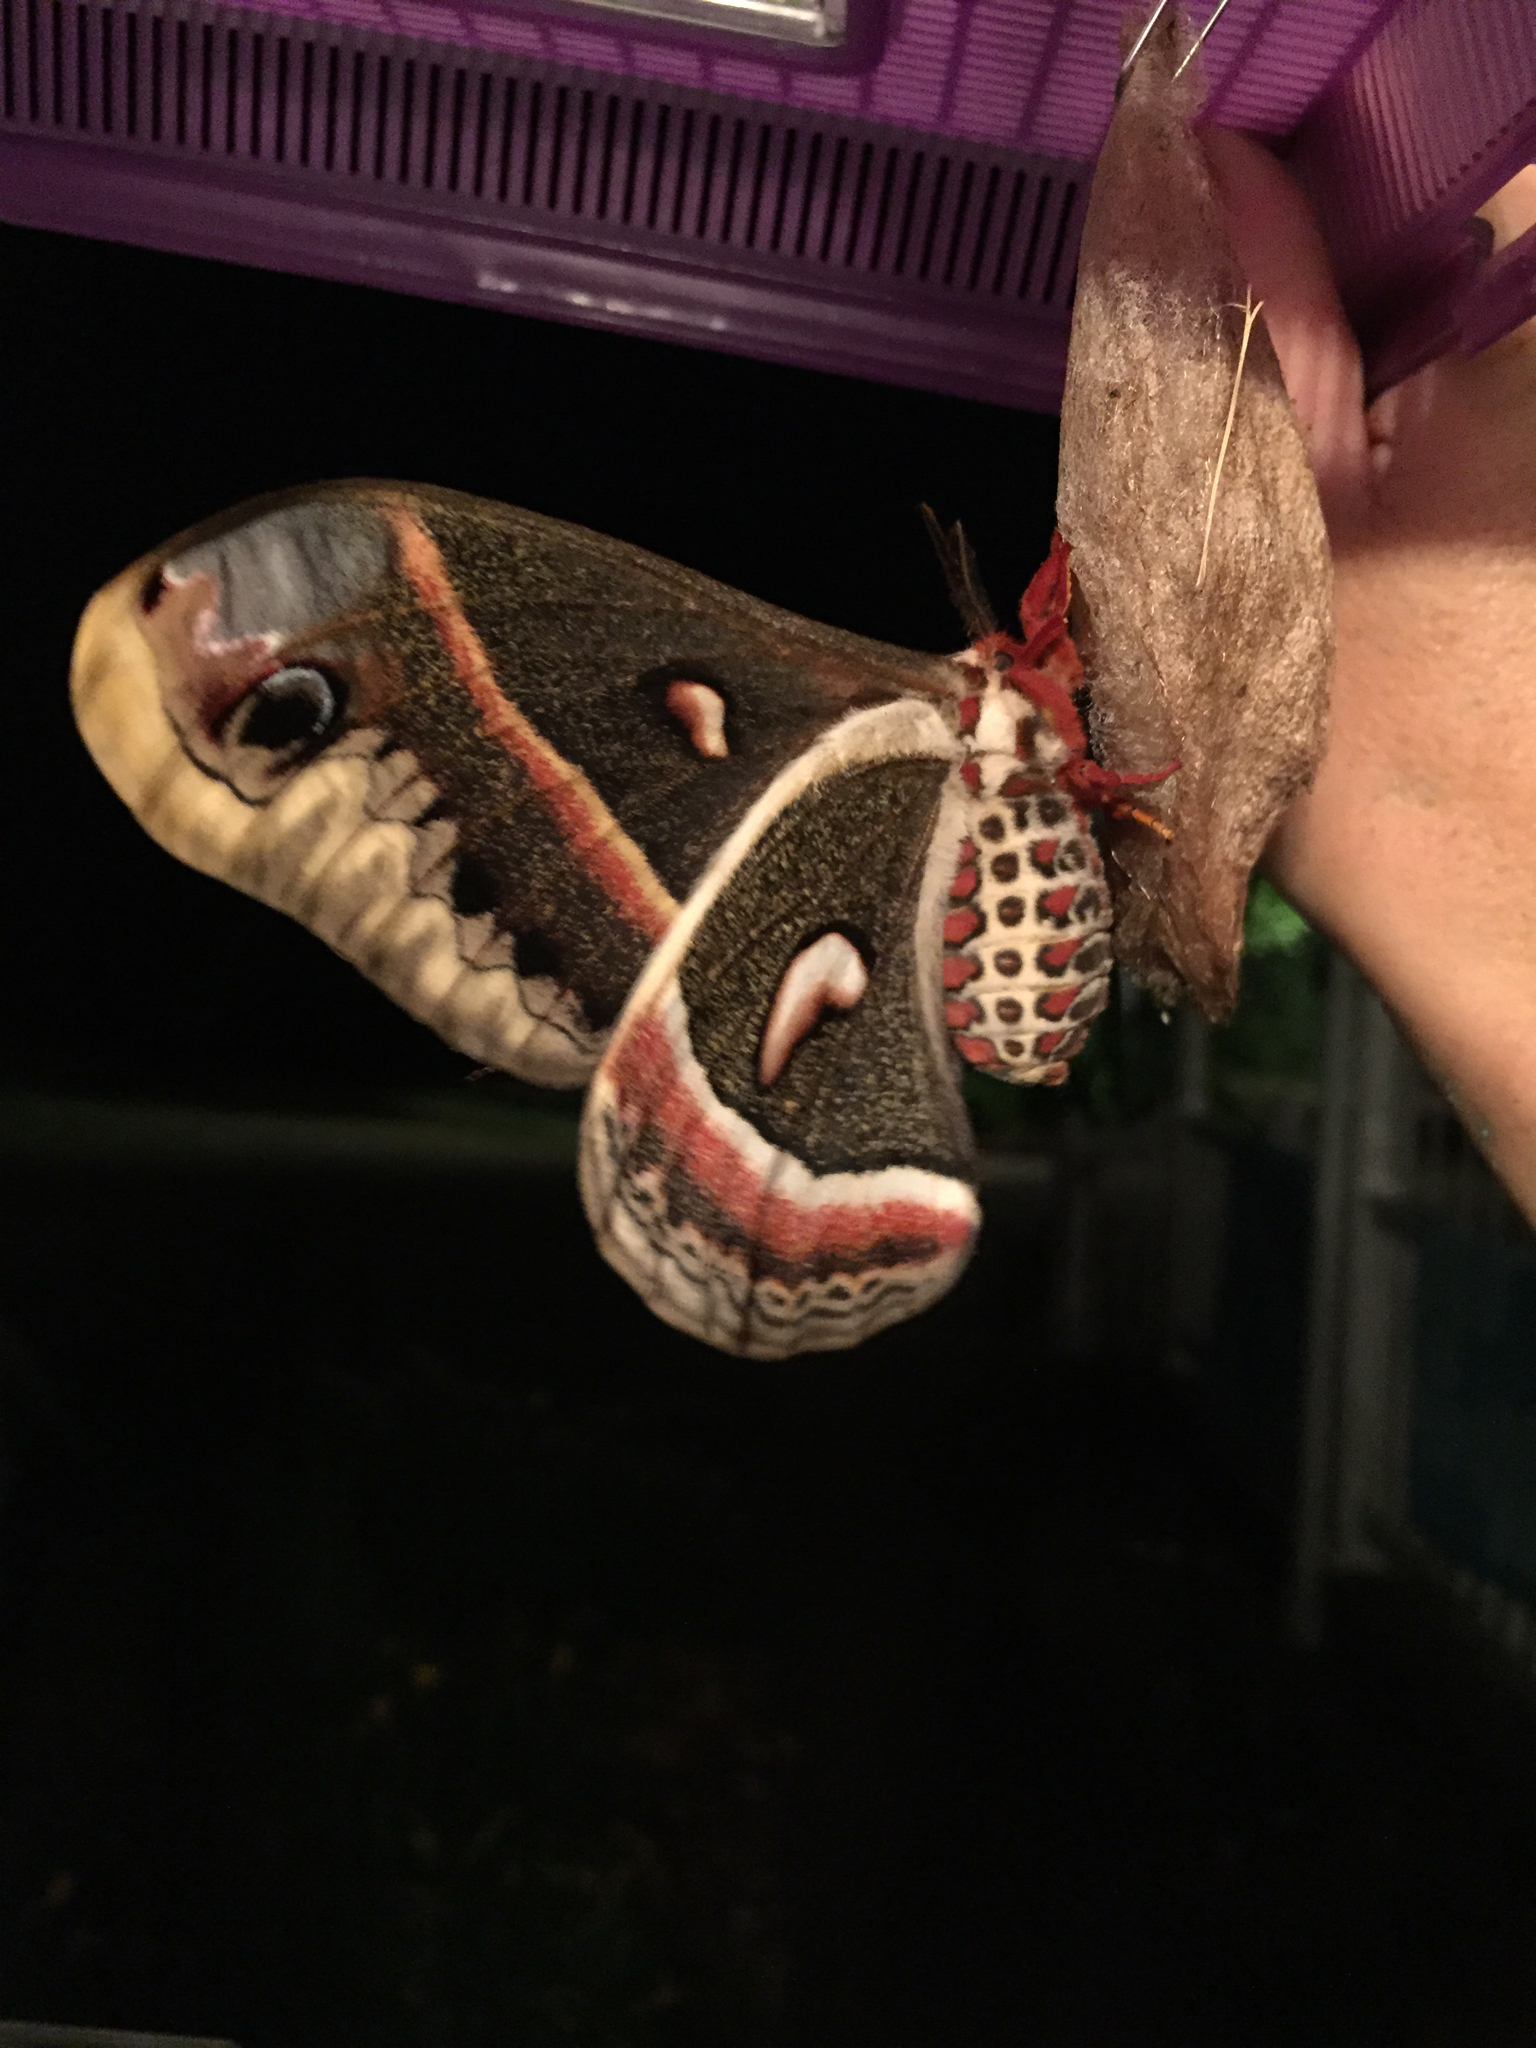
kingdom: Animalia
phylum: Arthropoda
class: Insecta
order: Lepidoptera
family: Saturniidae
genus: Hyalophora
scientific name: Hyalophora cecropia
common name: Cecropia silkmoth
